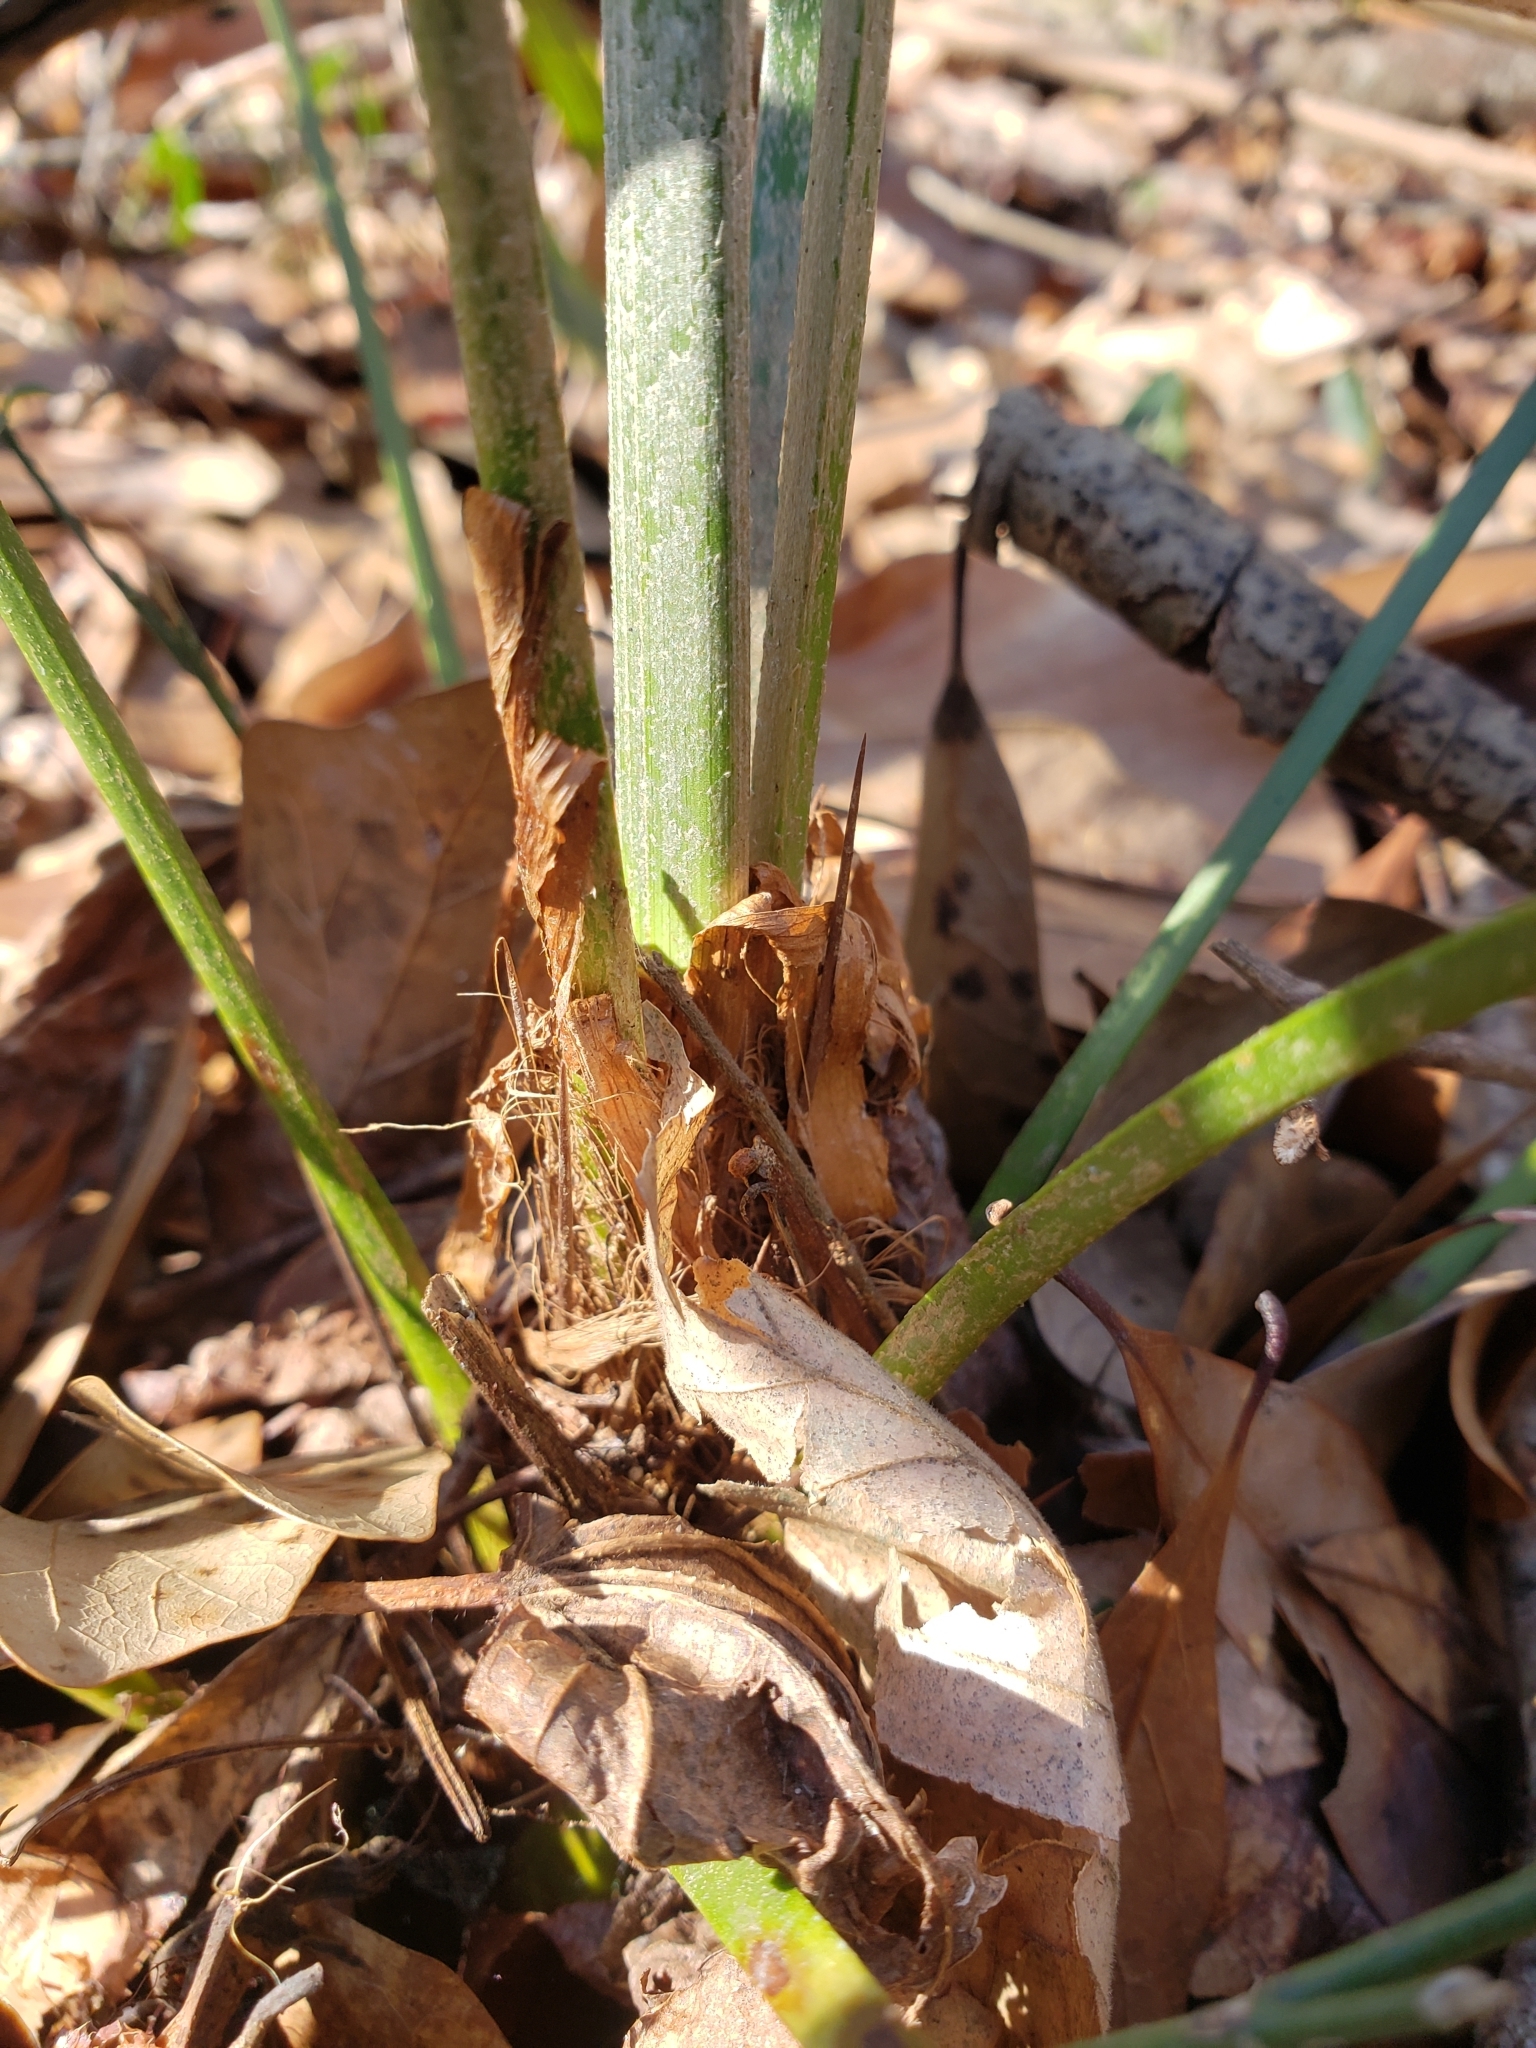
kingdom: Plantae
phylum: Tracheophyta
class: Liliopsida
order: Arecales
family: Arecaceae
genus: Rhapidophyllum
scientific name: Rhapidophyllum hystrix
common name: Porcupine palm
